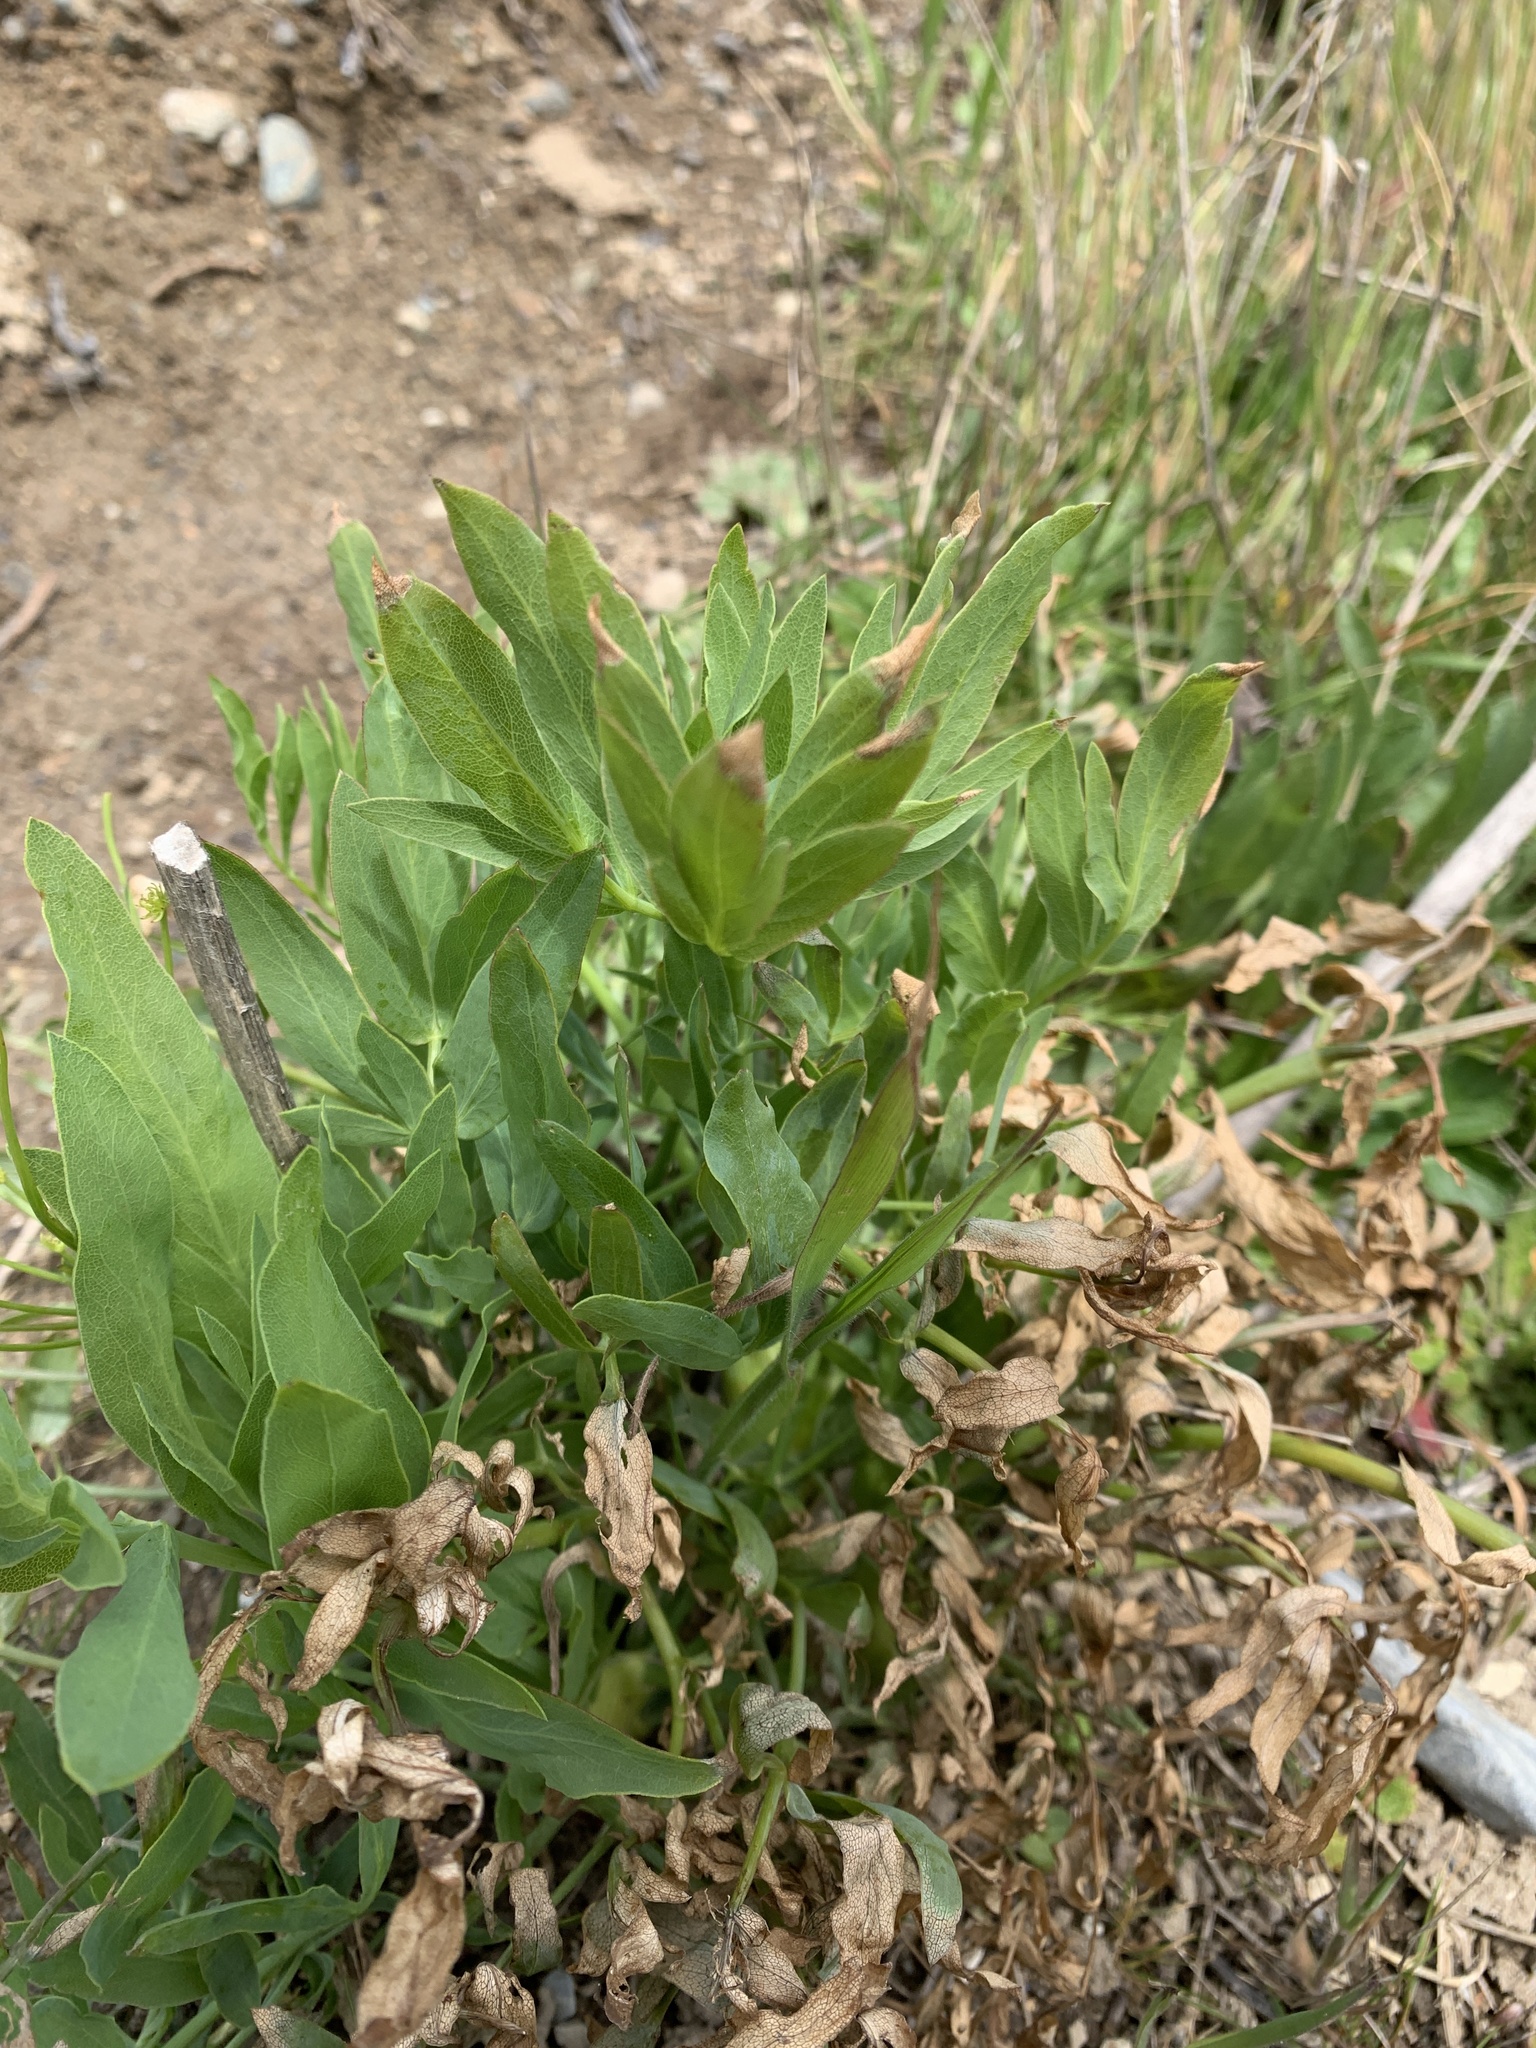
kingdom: Plantae
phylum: Tracheophyta
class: Magnoliopsida
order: Apiales
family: Apiaceae
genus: Lomatium
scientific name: Lomatium nudicaule
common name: Pestle lomatium
